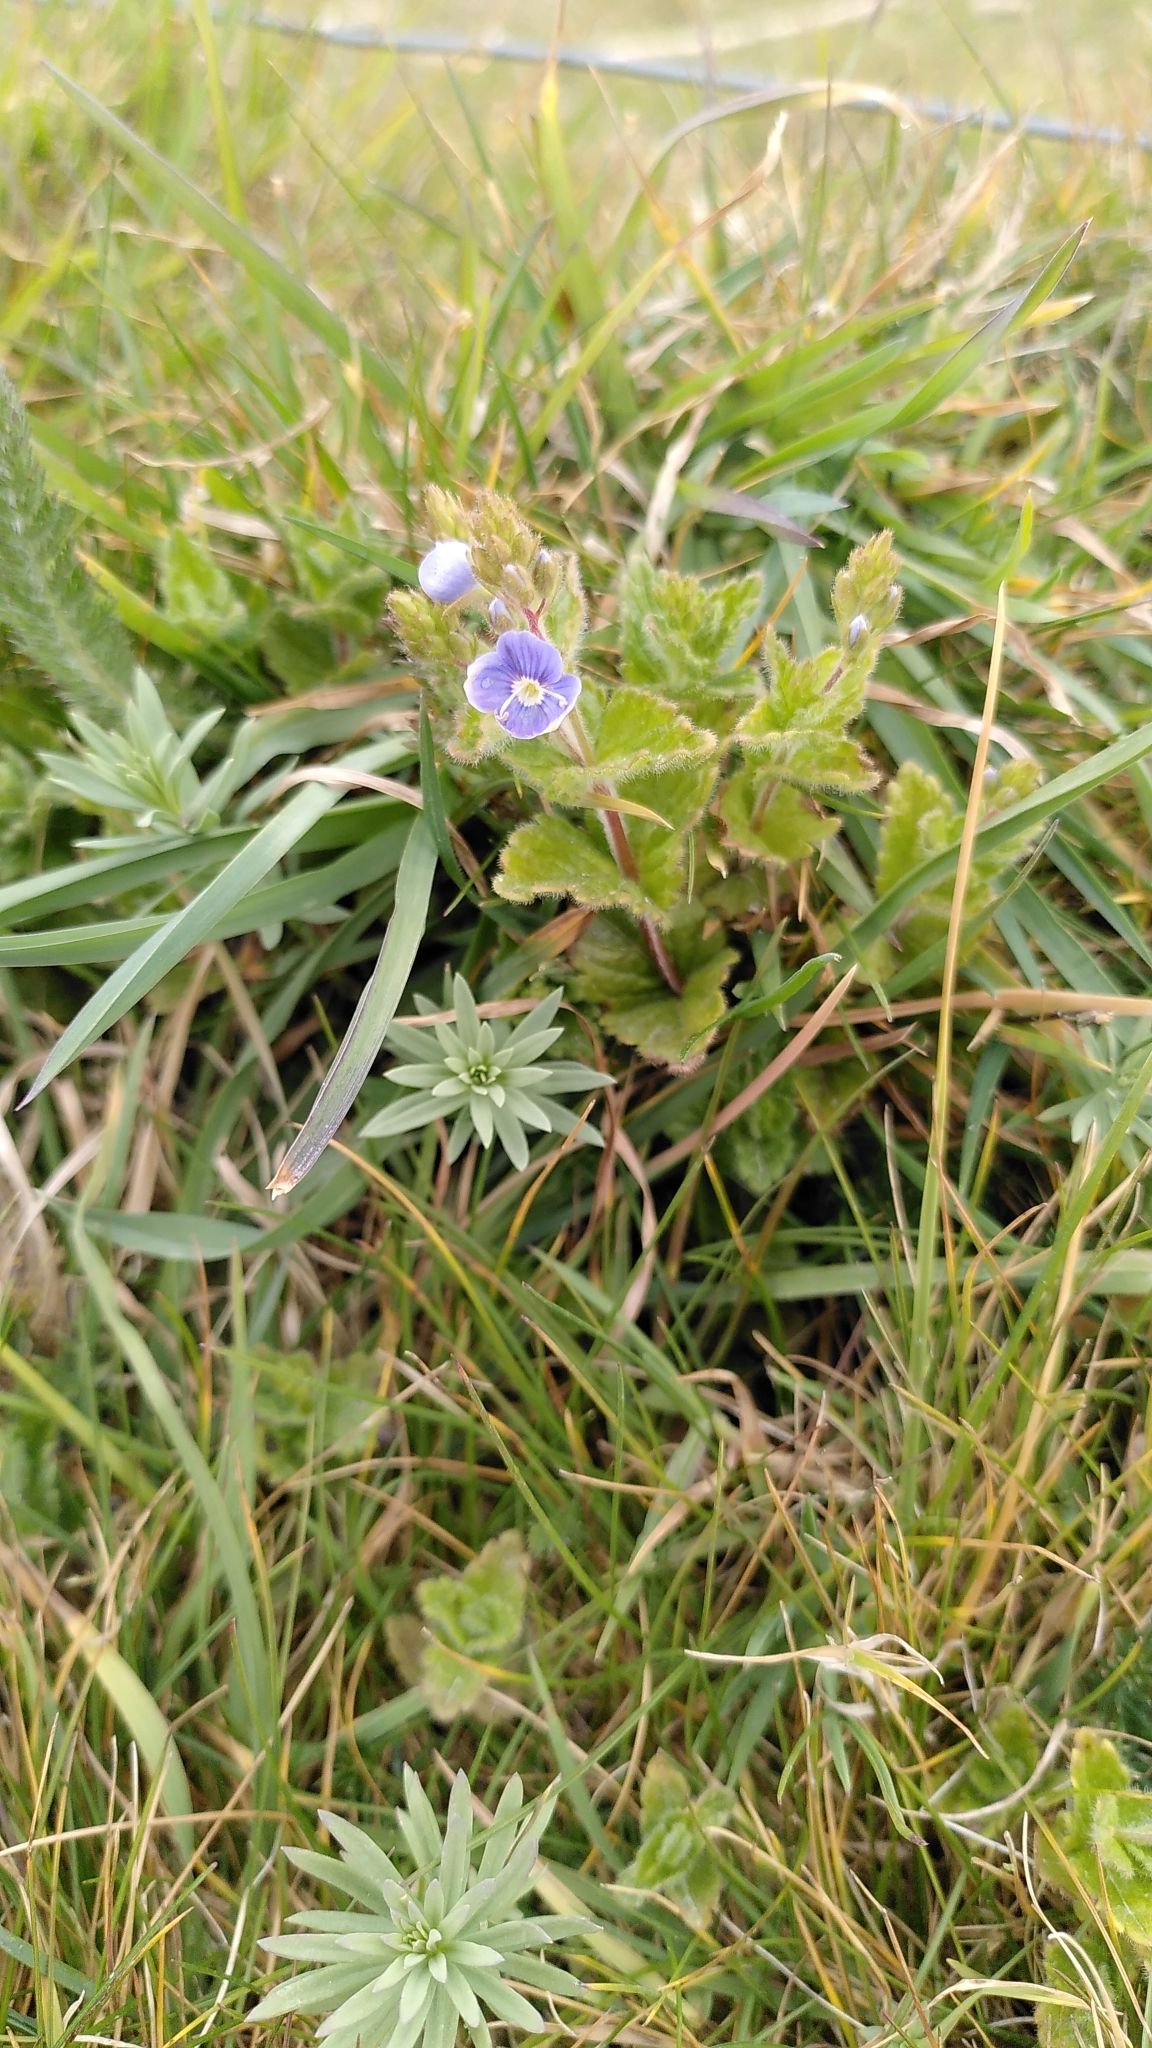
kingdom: Plantae
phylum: Tracheophyta
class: Magnoliopsida
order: Lamiales
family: Plantaginaceae
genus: Veronica
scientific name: Veronica chamaedrys
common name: Germander speedwell
